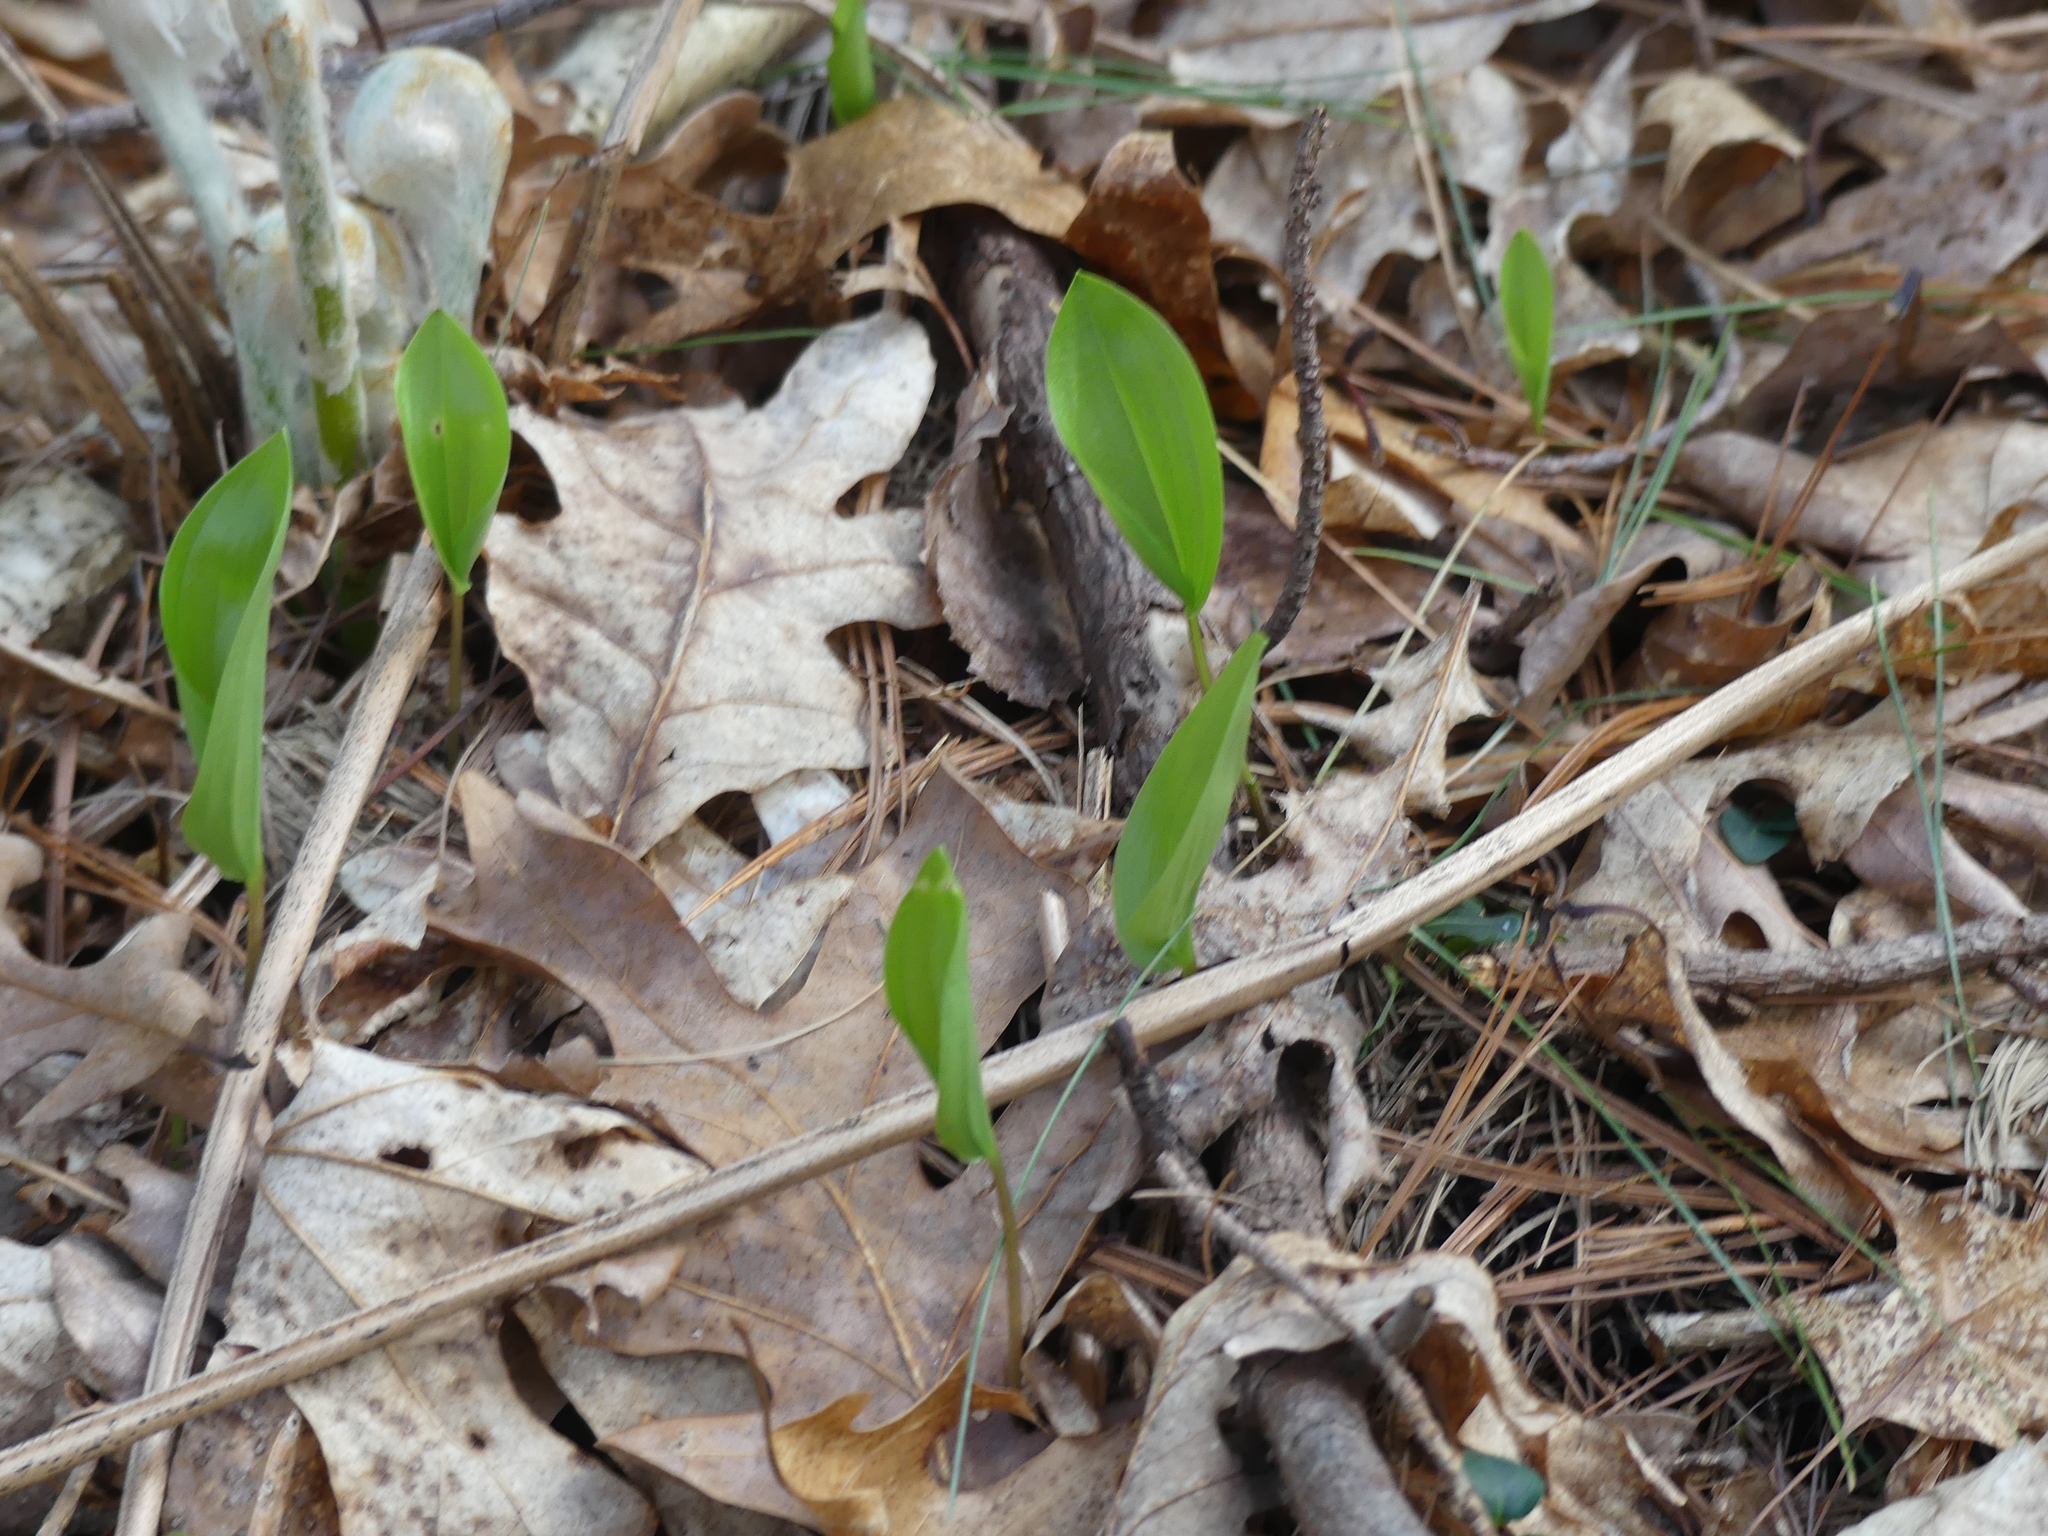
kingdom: Plantae
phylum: Tracheophyta
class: Liliopsida
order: Asparagales
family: Asparagaceae
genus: Maianthemum
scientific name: Maianthemum canadense
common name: False lily-of-the-valley
